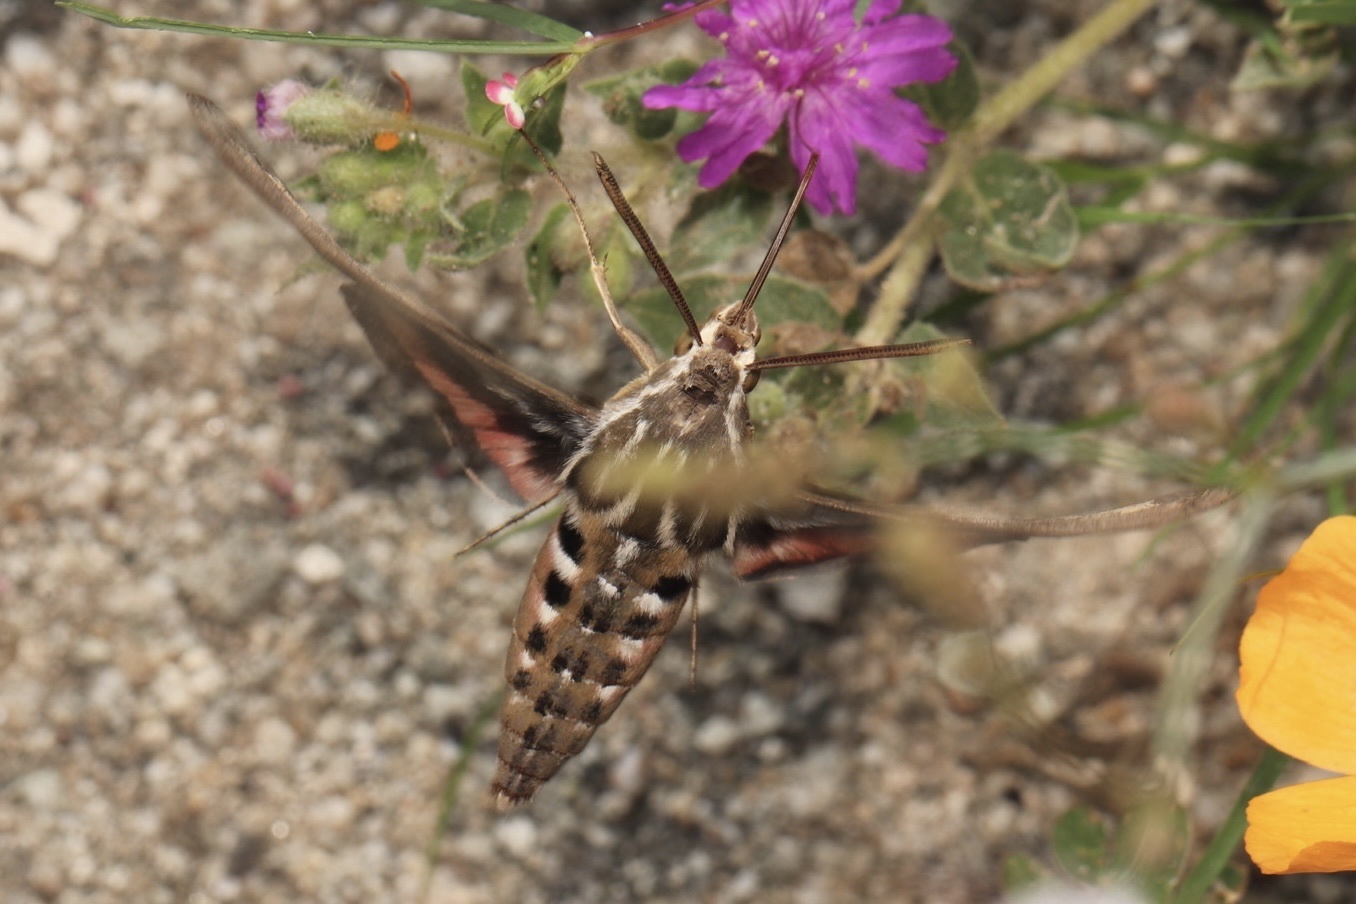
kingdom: Animalia
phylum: Arthropoda
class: Insecta
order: Lepidoptera
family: Sphingidae
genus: Hyles
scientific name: Hyles lineata
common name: White-lined sphinx
